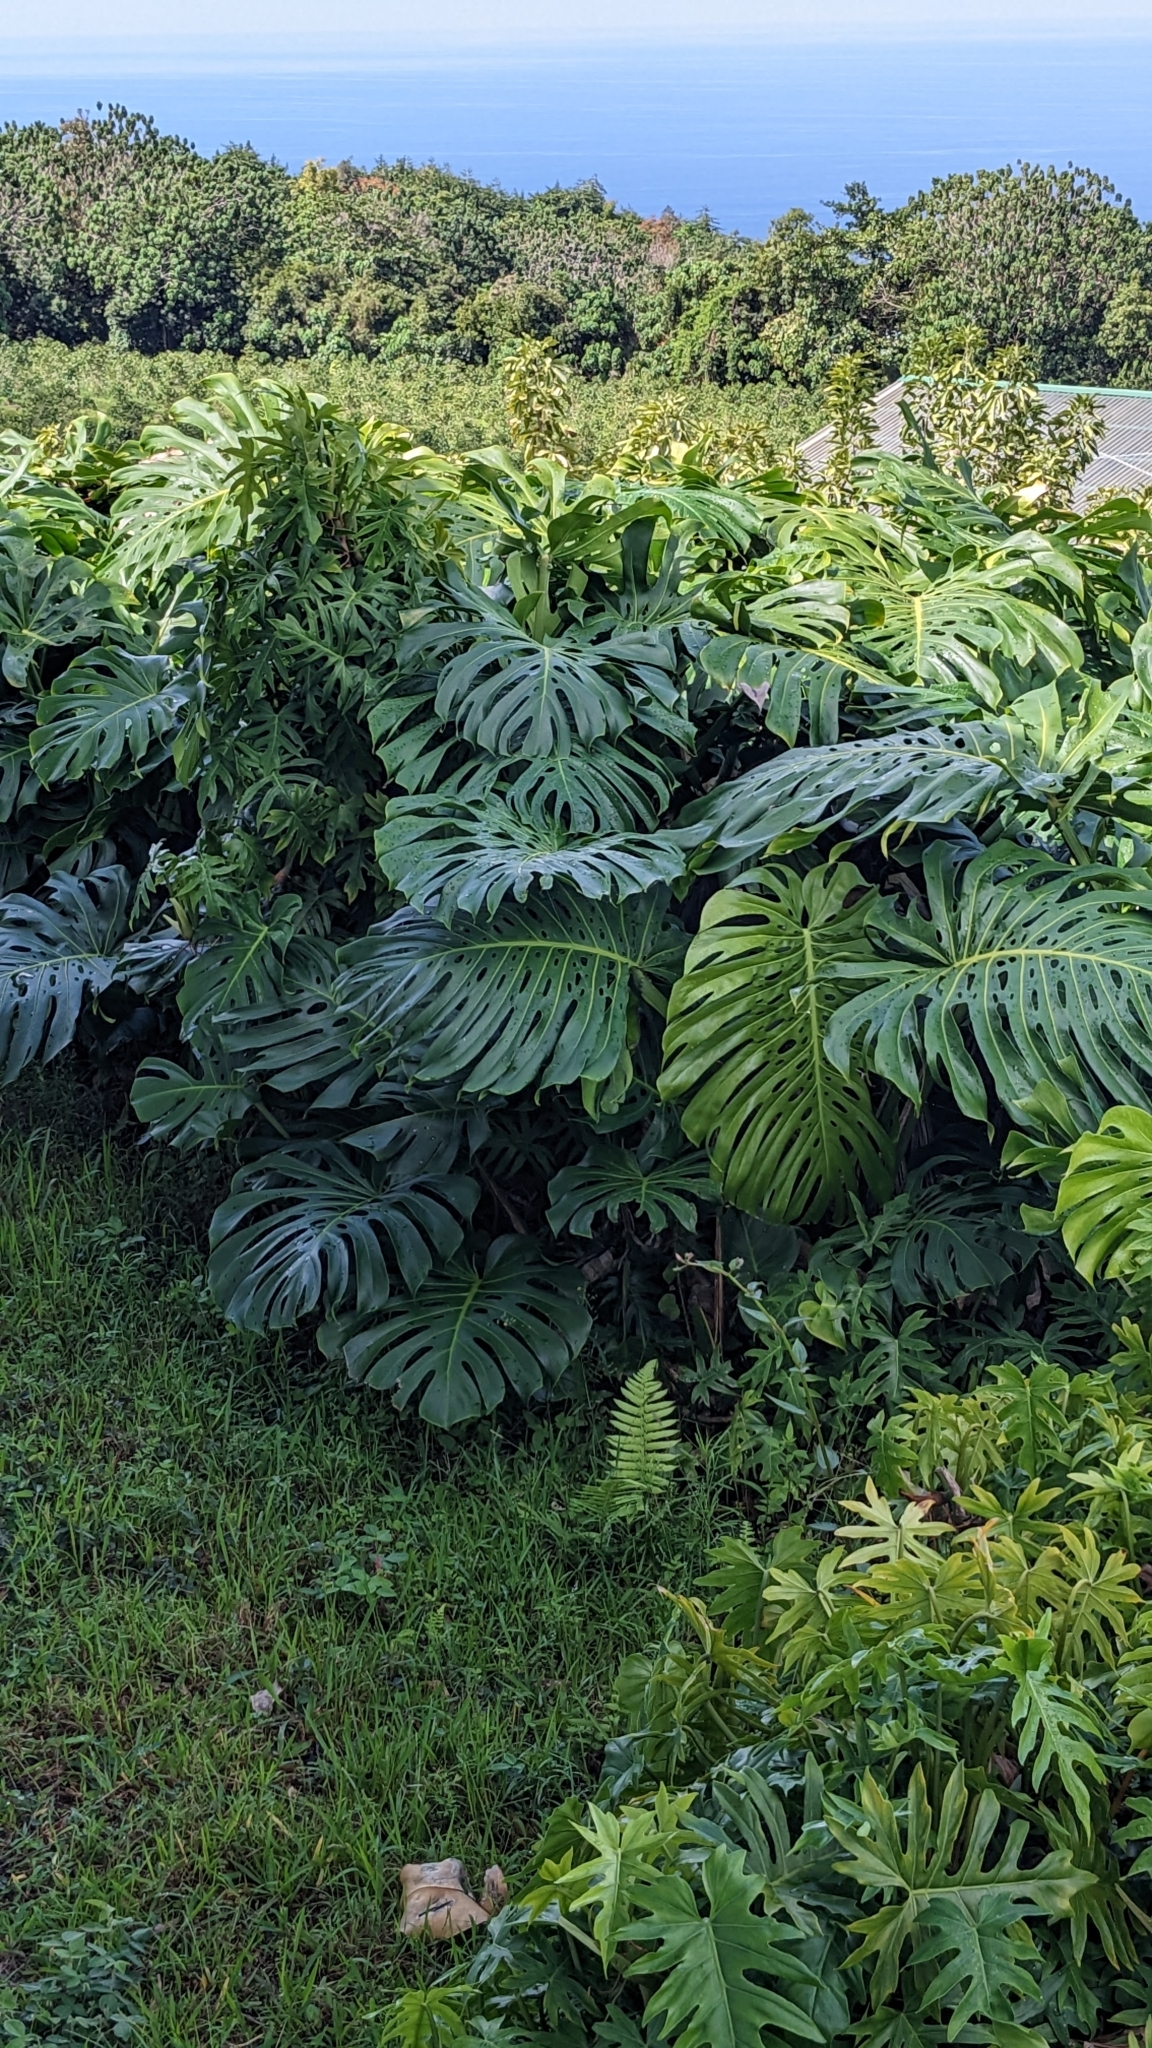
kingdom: Plantae
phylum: Tracheophyta
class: Liliopsida
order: Alismatales
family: Araceae
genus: Monstera
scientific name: Monstera deliciosa
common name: Cut-leaf-philodendron
